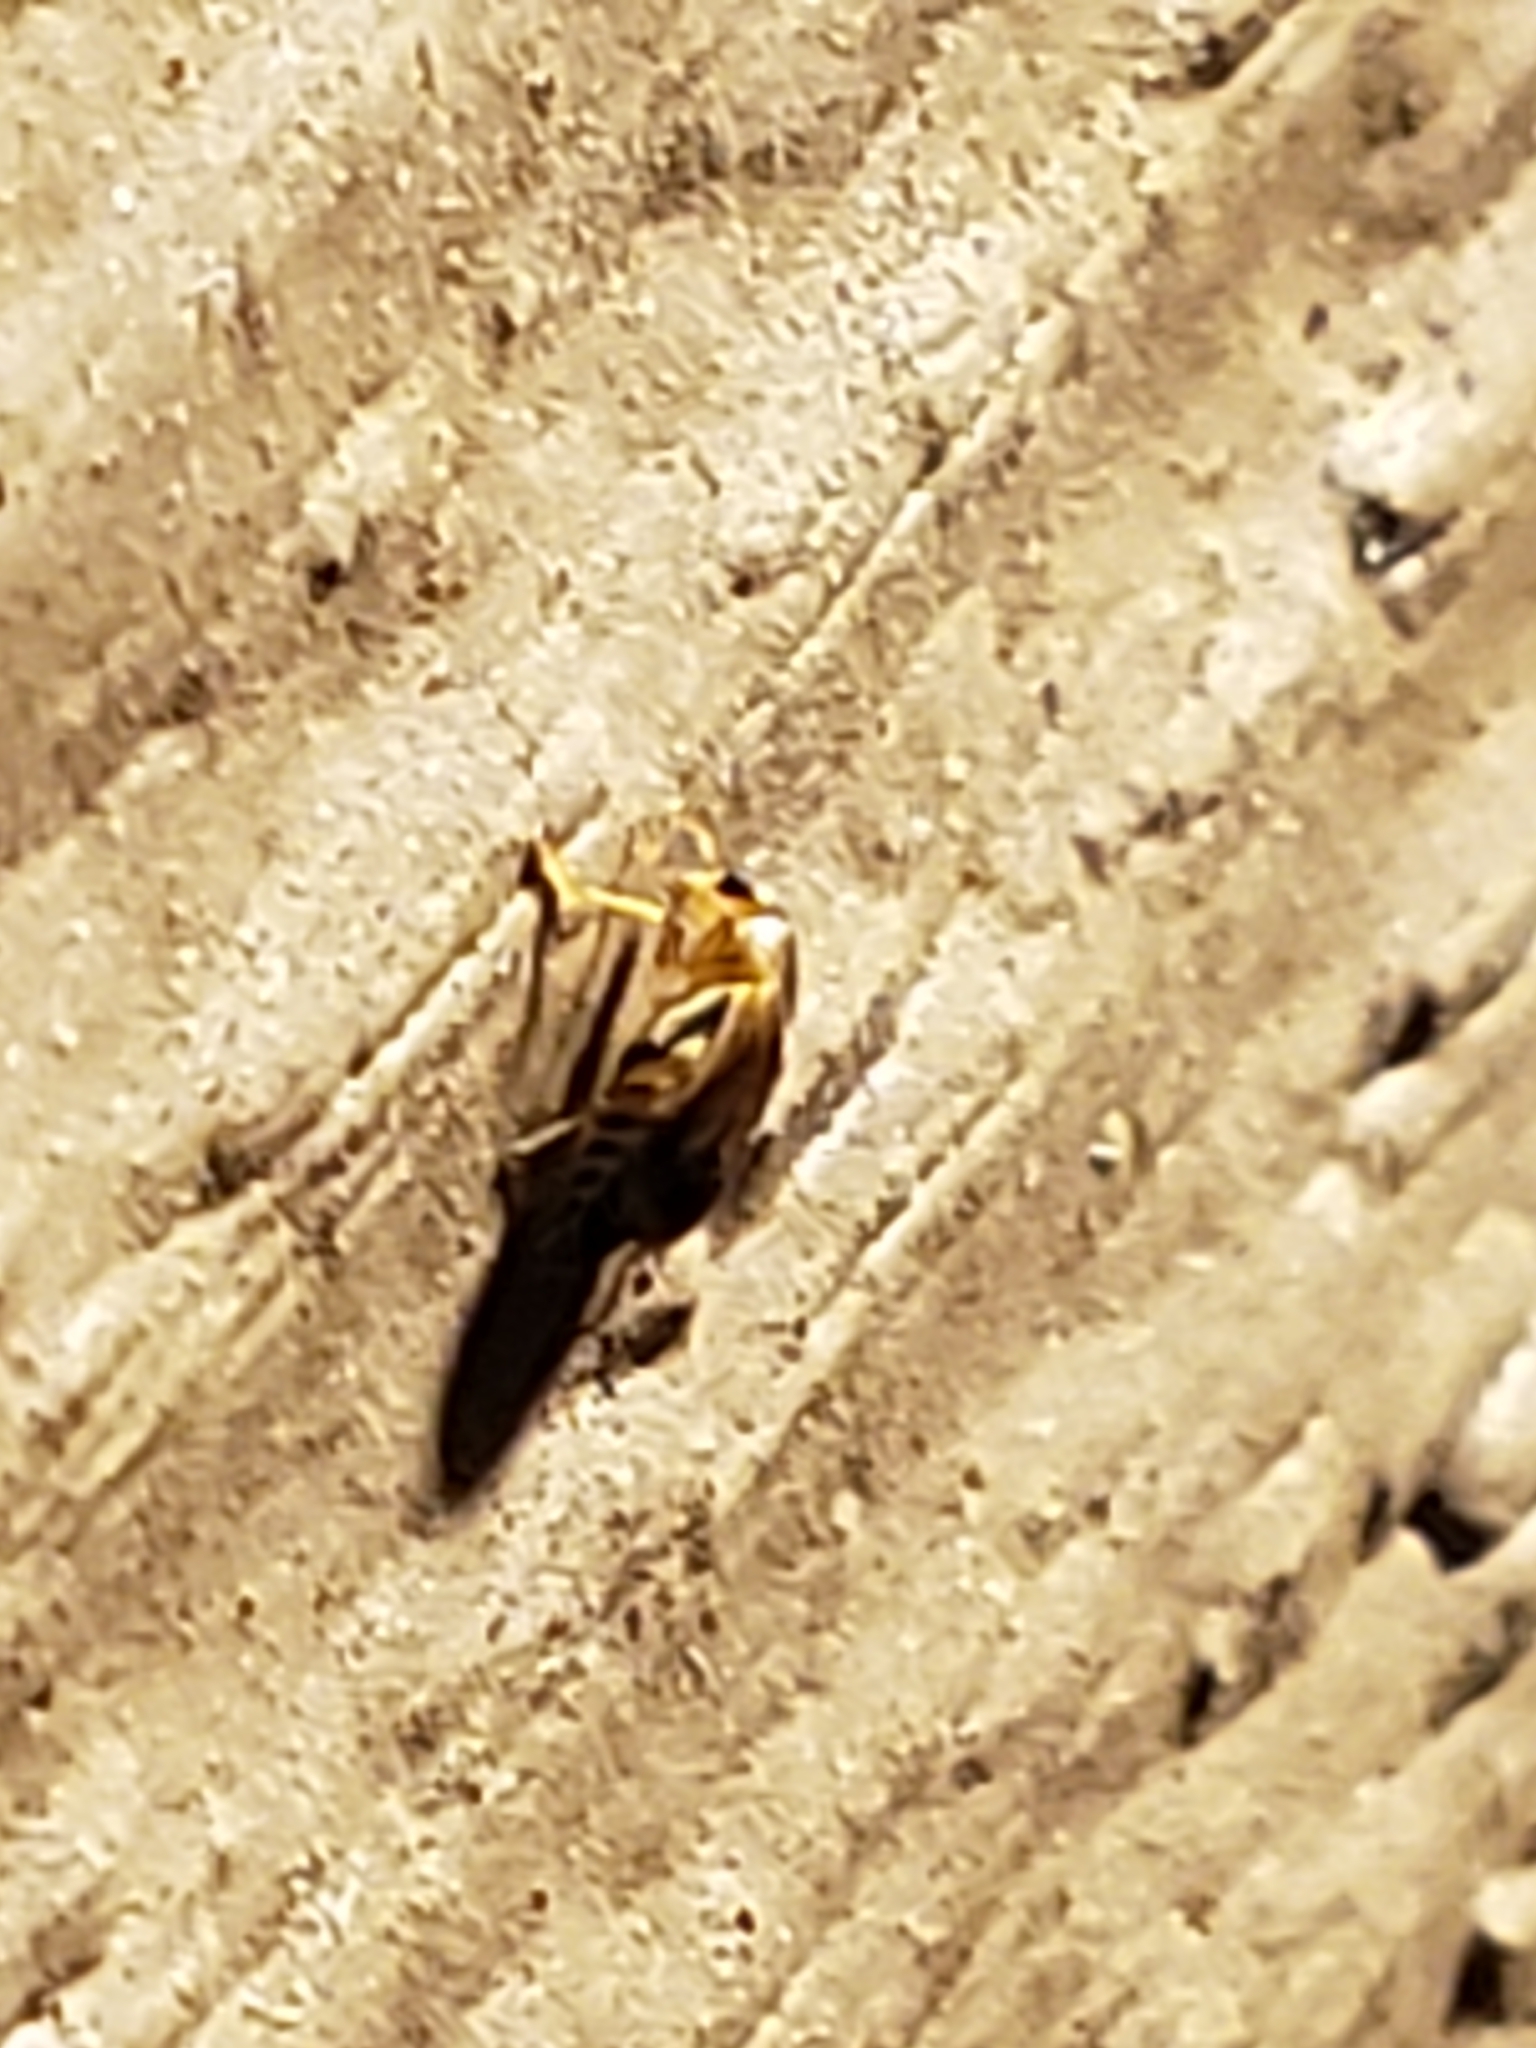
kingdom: Animalia
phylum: Arthropoda
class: Insecta
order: Coleoptera
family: Malachiidae
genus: Attalus
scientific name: Attalus
